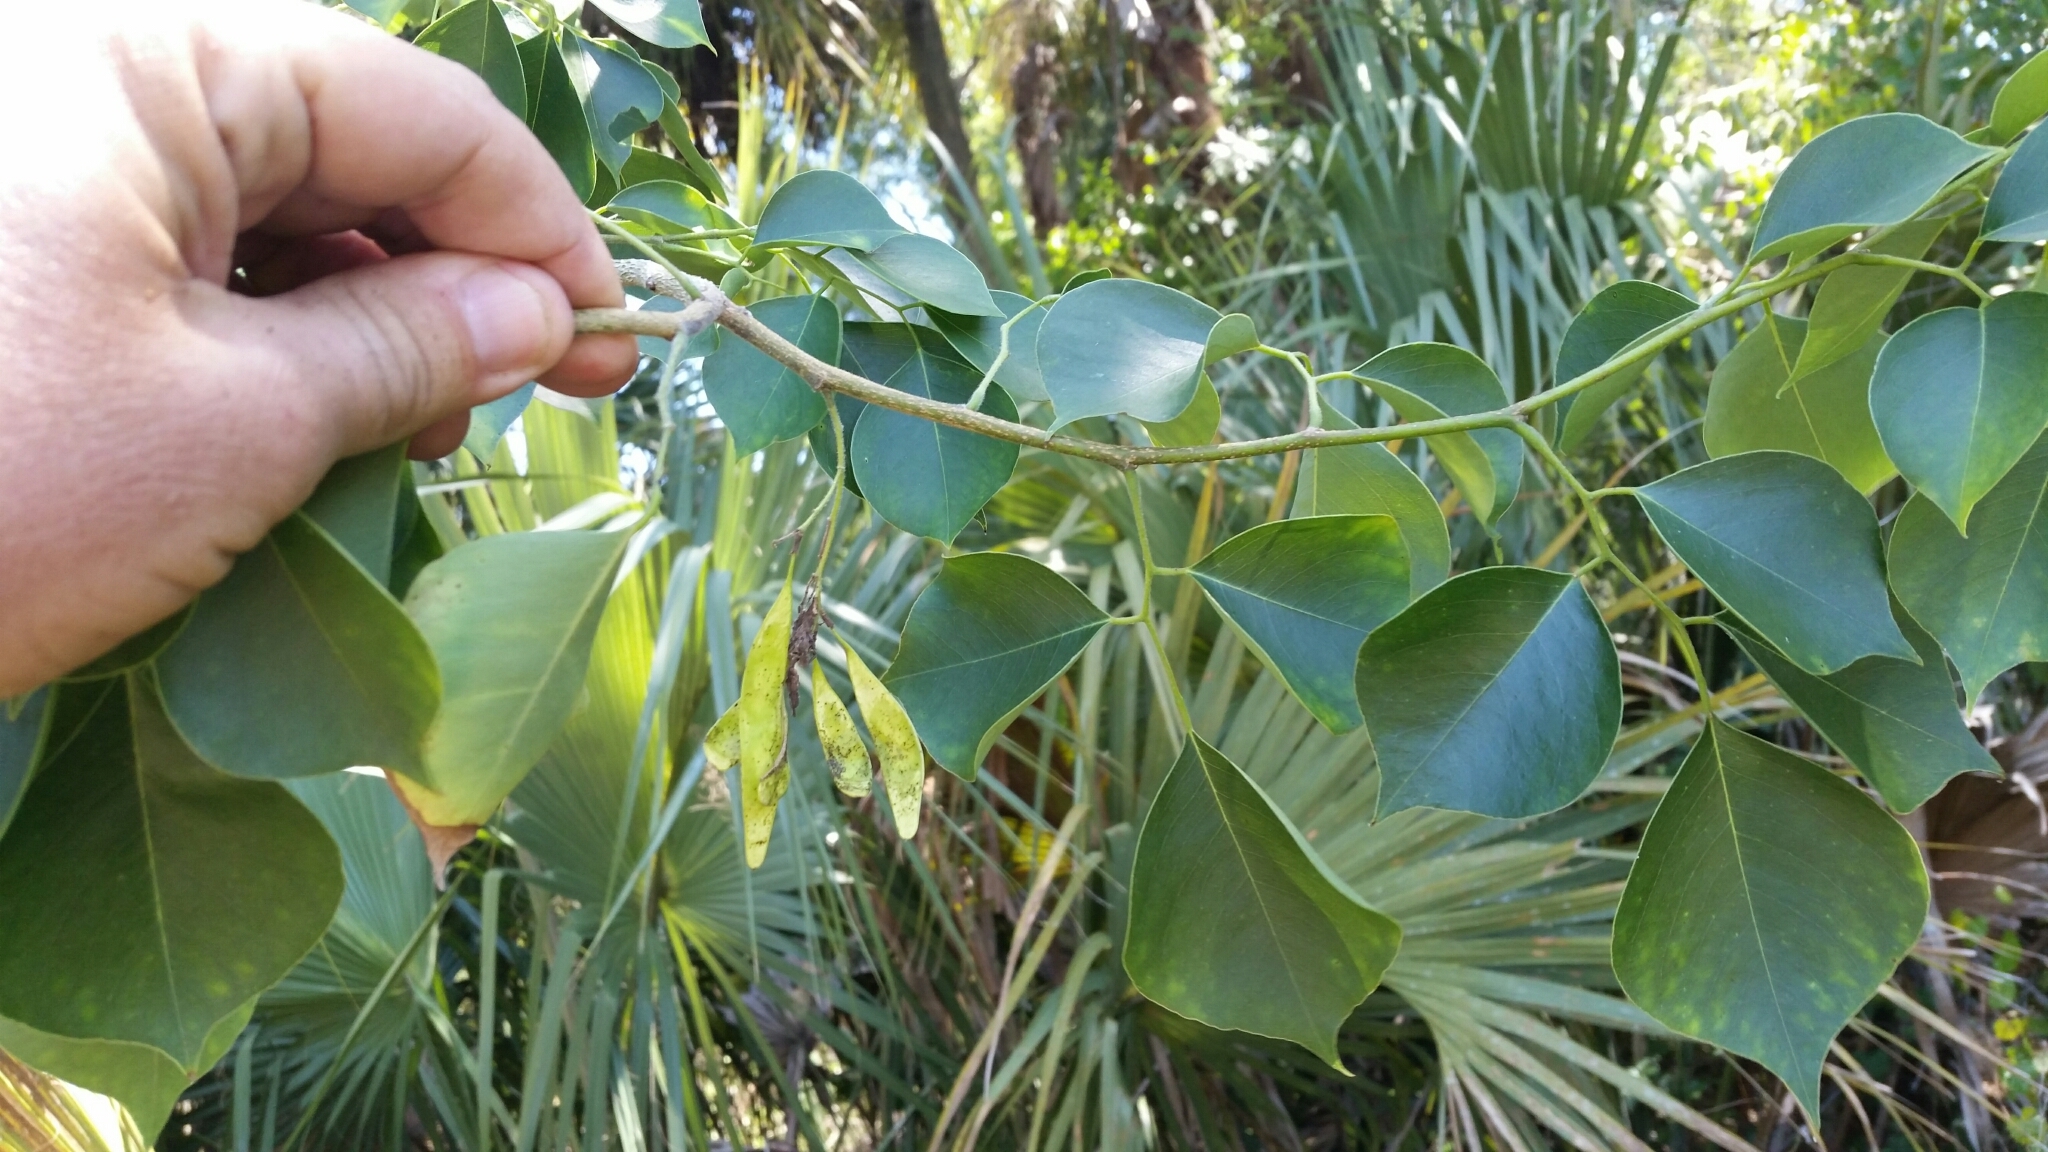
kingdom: Plantae
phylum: Tracheophyta
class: Magnoliopsida
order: Fabales
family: Fabaceae
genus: Dalbergia
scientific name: Dalbergia sissoo
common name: Indian rosewood
